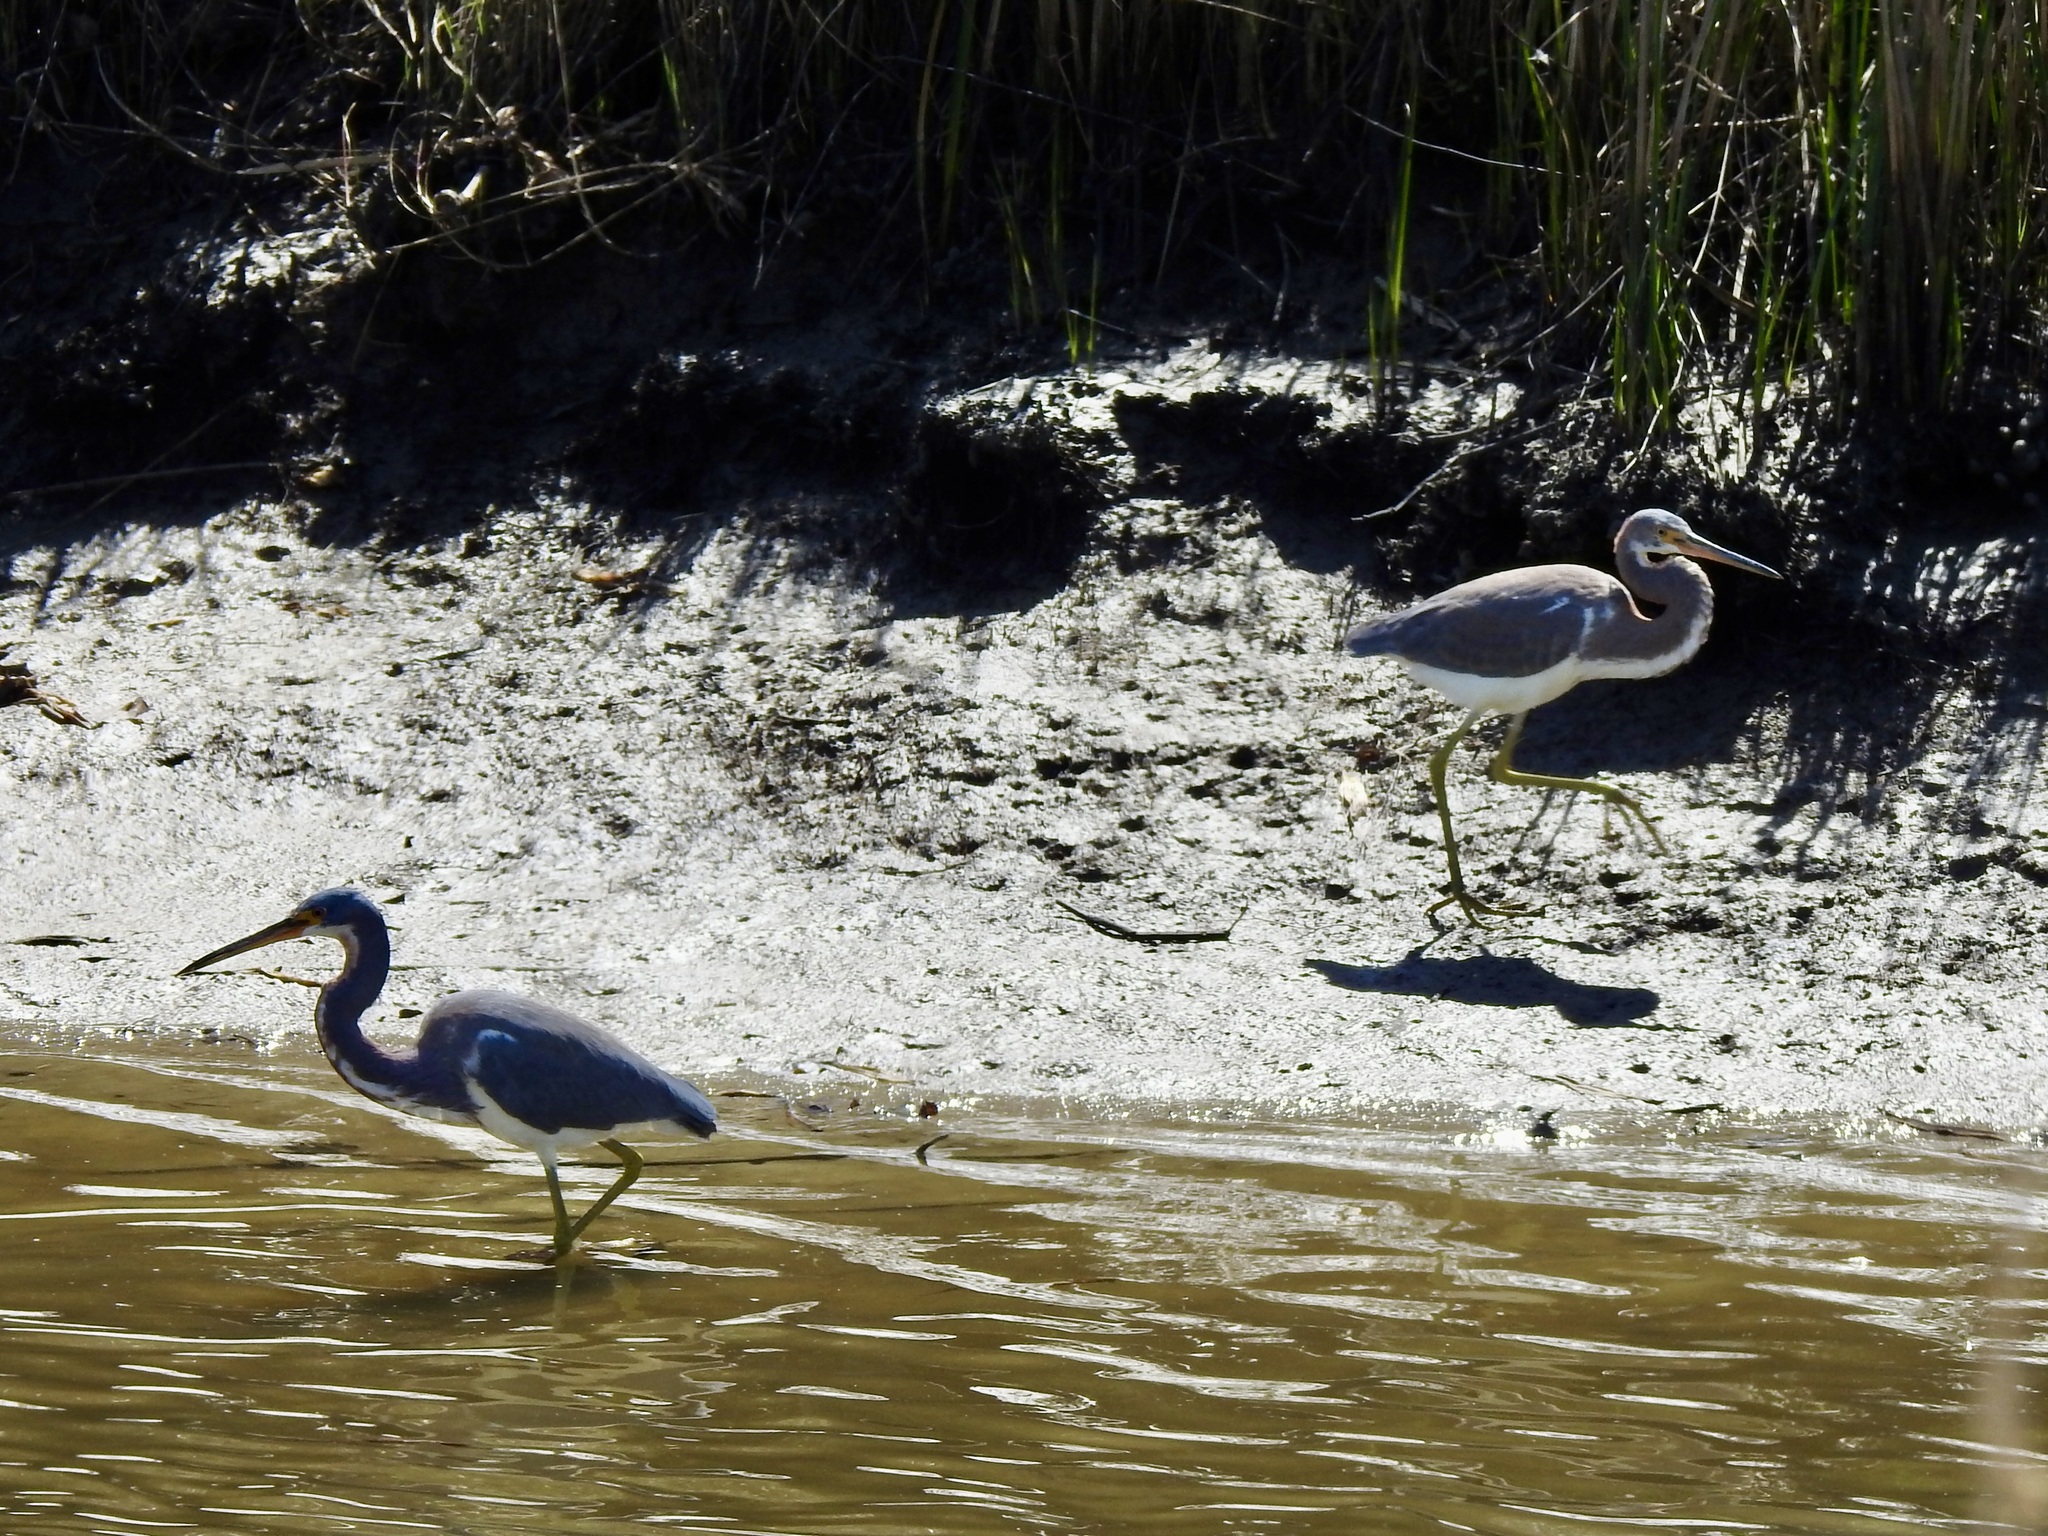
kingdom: Animalia
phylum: Chordata
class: Aves
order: Pelecaniformes
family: Ardeidae
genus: Egretta
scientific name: Egretta tricolor
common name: Tricolored heron
